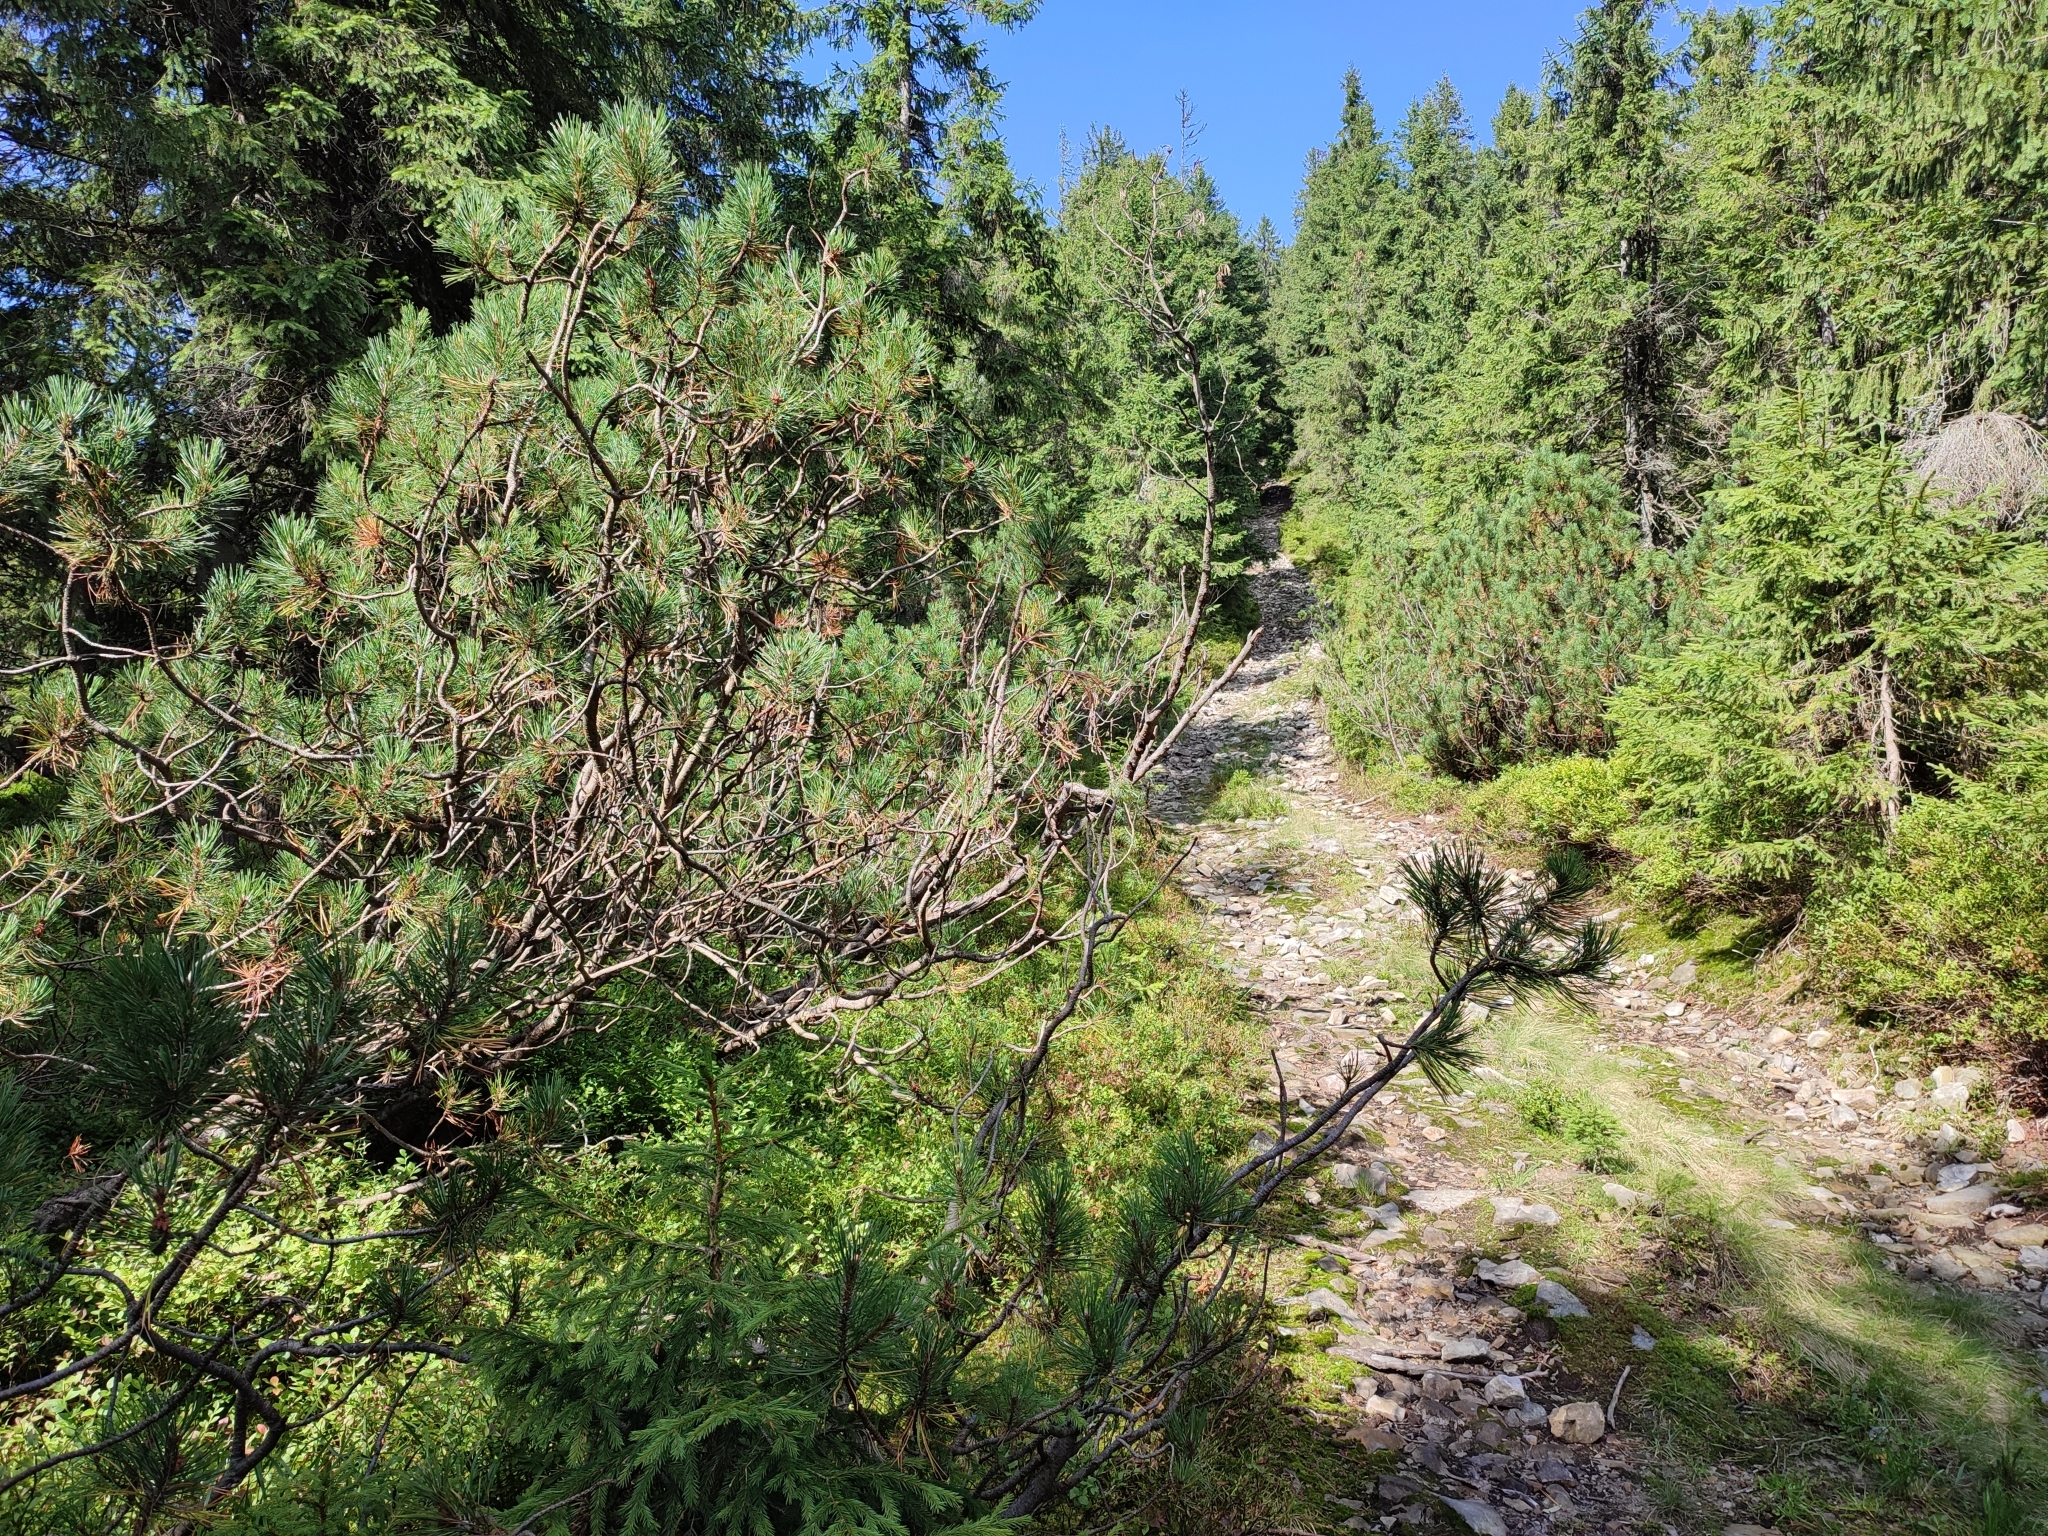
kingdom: Plantae
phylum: Tracheophyta
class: Pinopsida
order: Pinales
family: Pinaceae
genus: Pinus
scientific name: Pinus mugo
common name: Mugo pine
